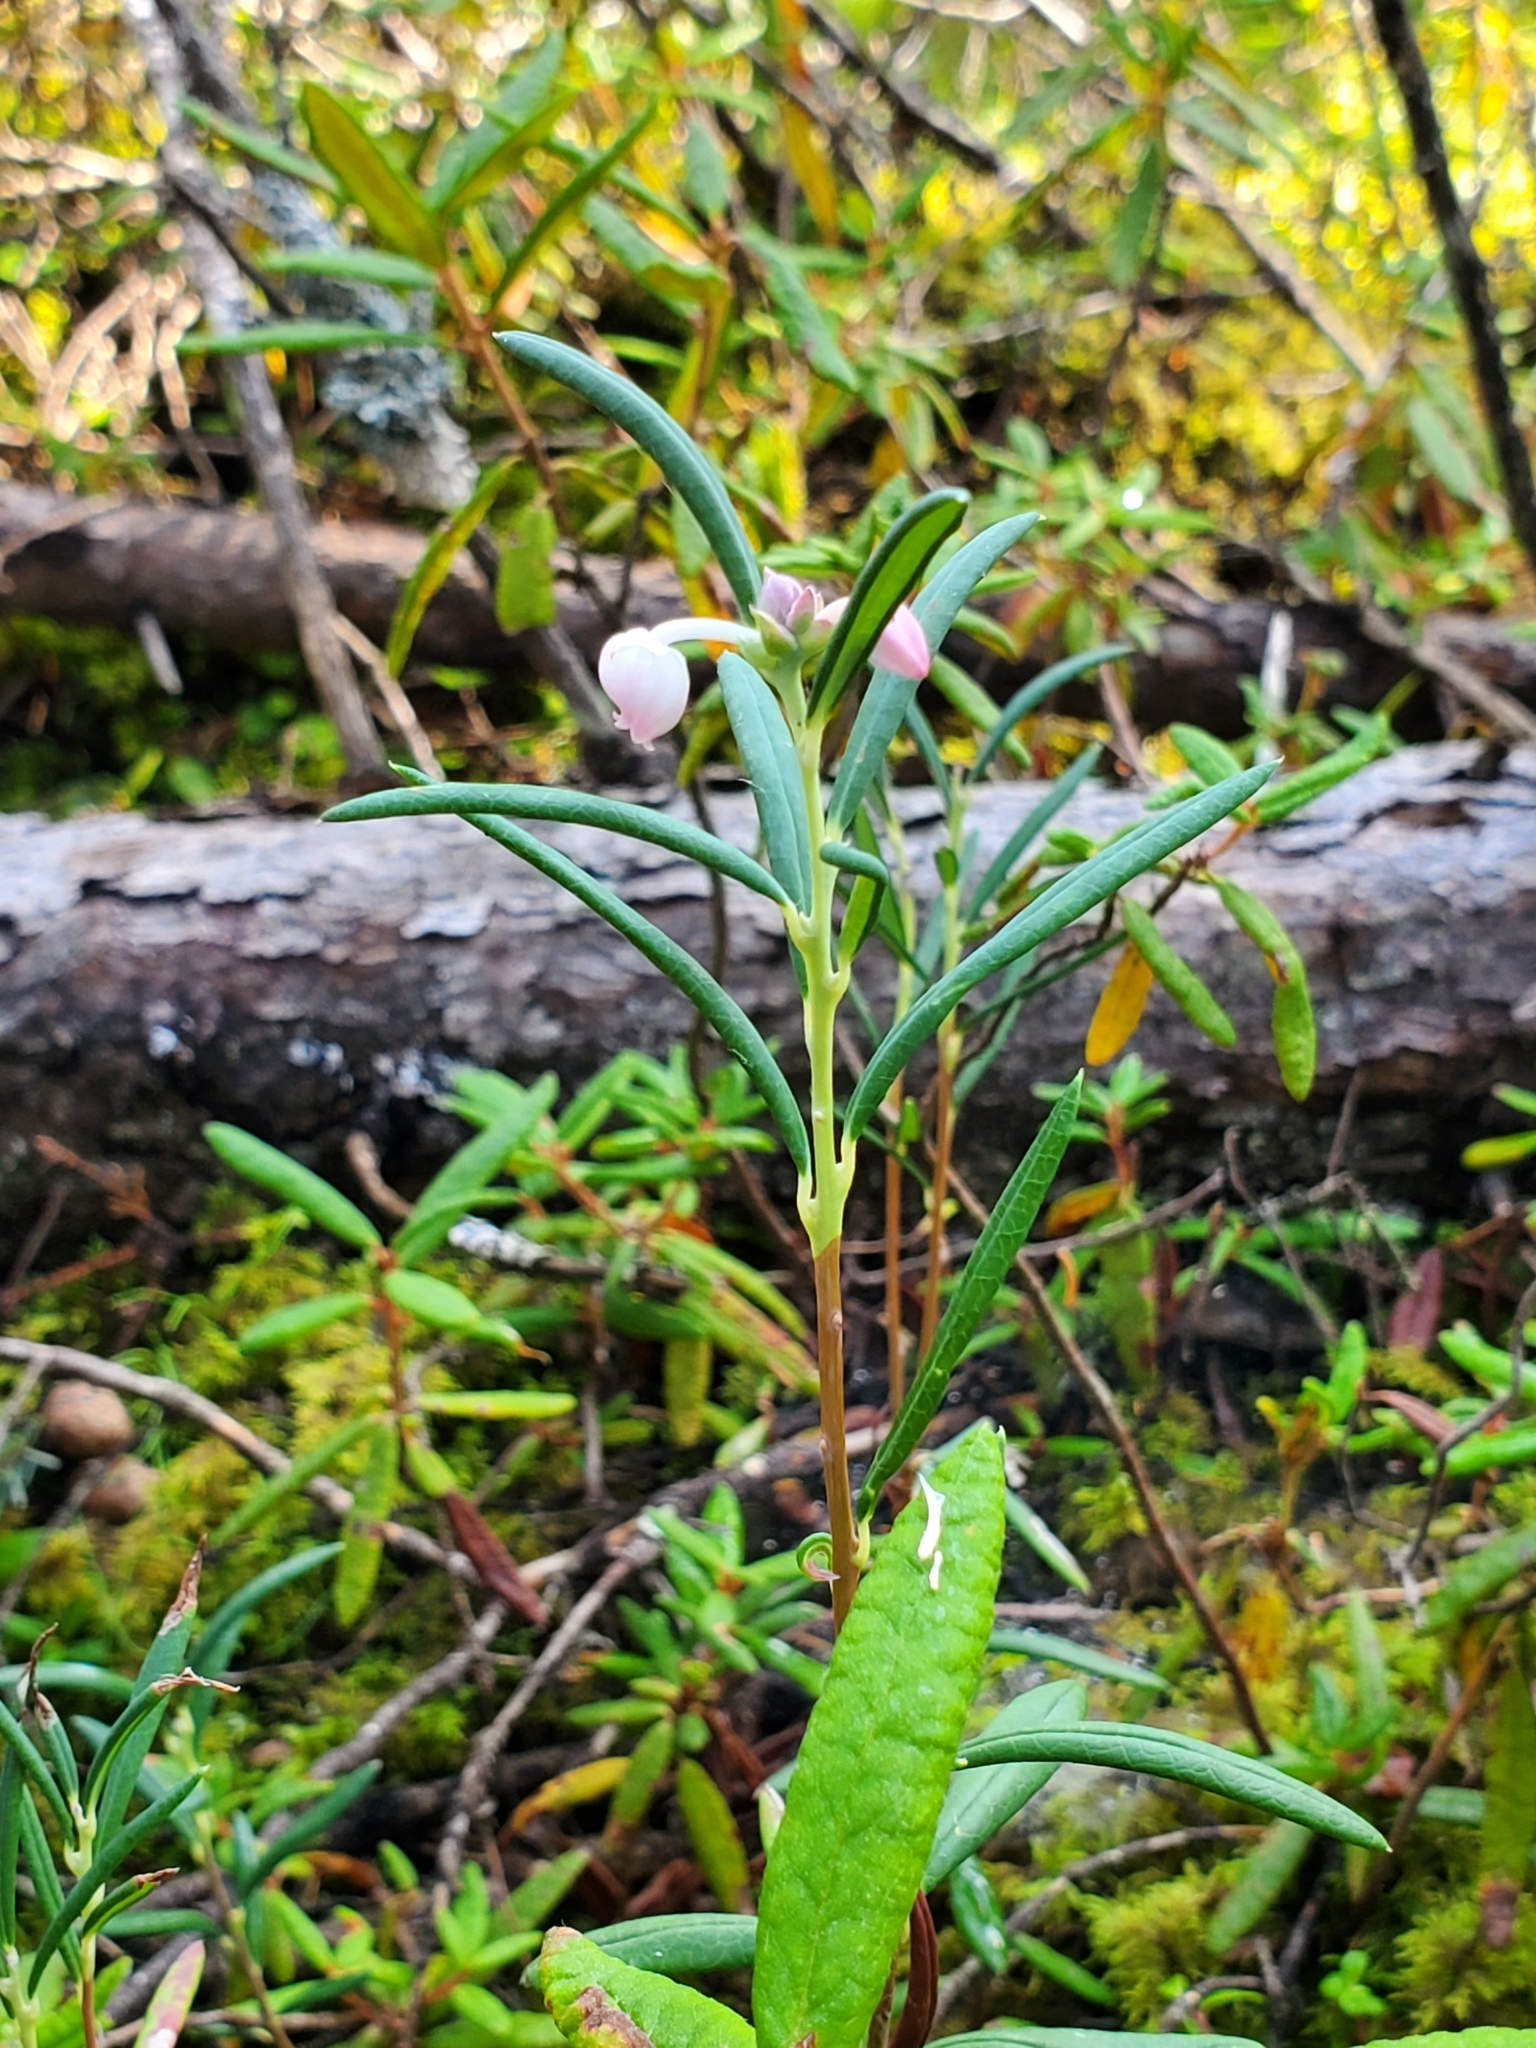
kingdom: Plantae
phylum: Tracheophyta
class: Magnoliopsida
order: Ericales
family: Ericaceae
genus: Andromeda
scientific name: Andromeda polifolia
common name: Bog-rosemary
